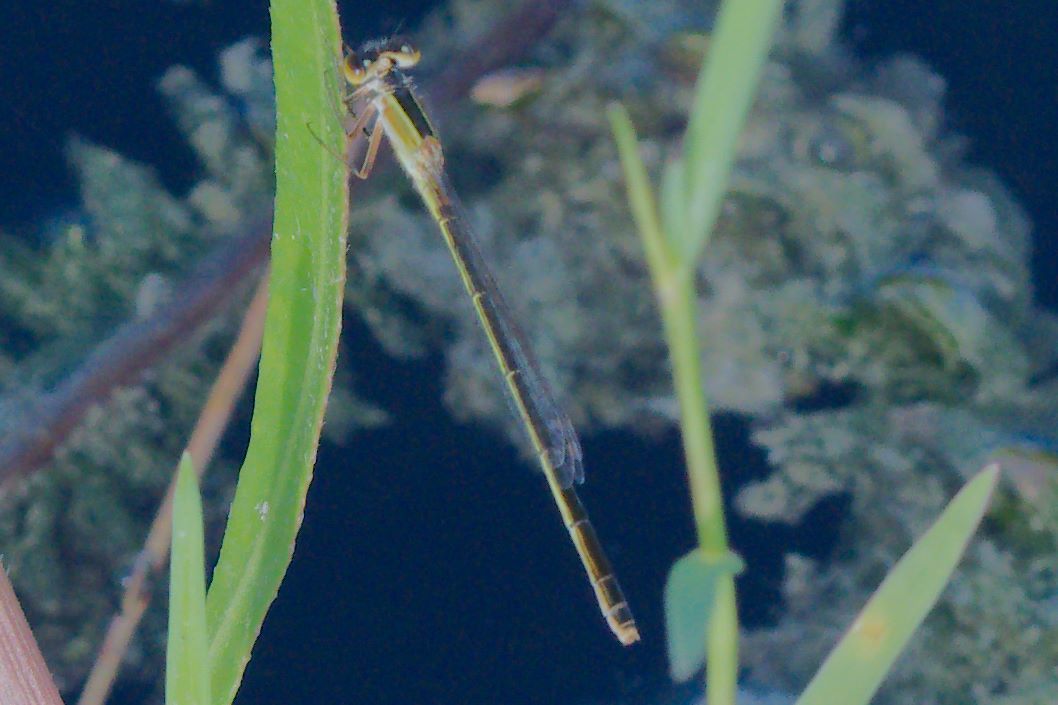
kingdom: Animalia
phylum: Arthropoda
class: Insecta
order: Odonata
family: Coenagrionidae
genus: Ischnura
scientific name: Ischnura ramburii
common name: Rambur's forktail
